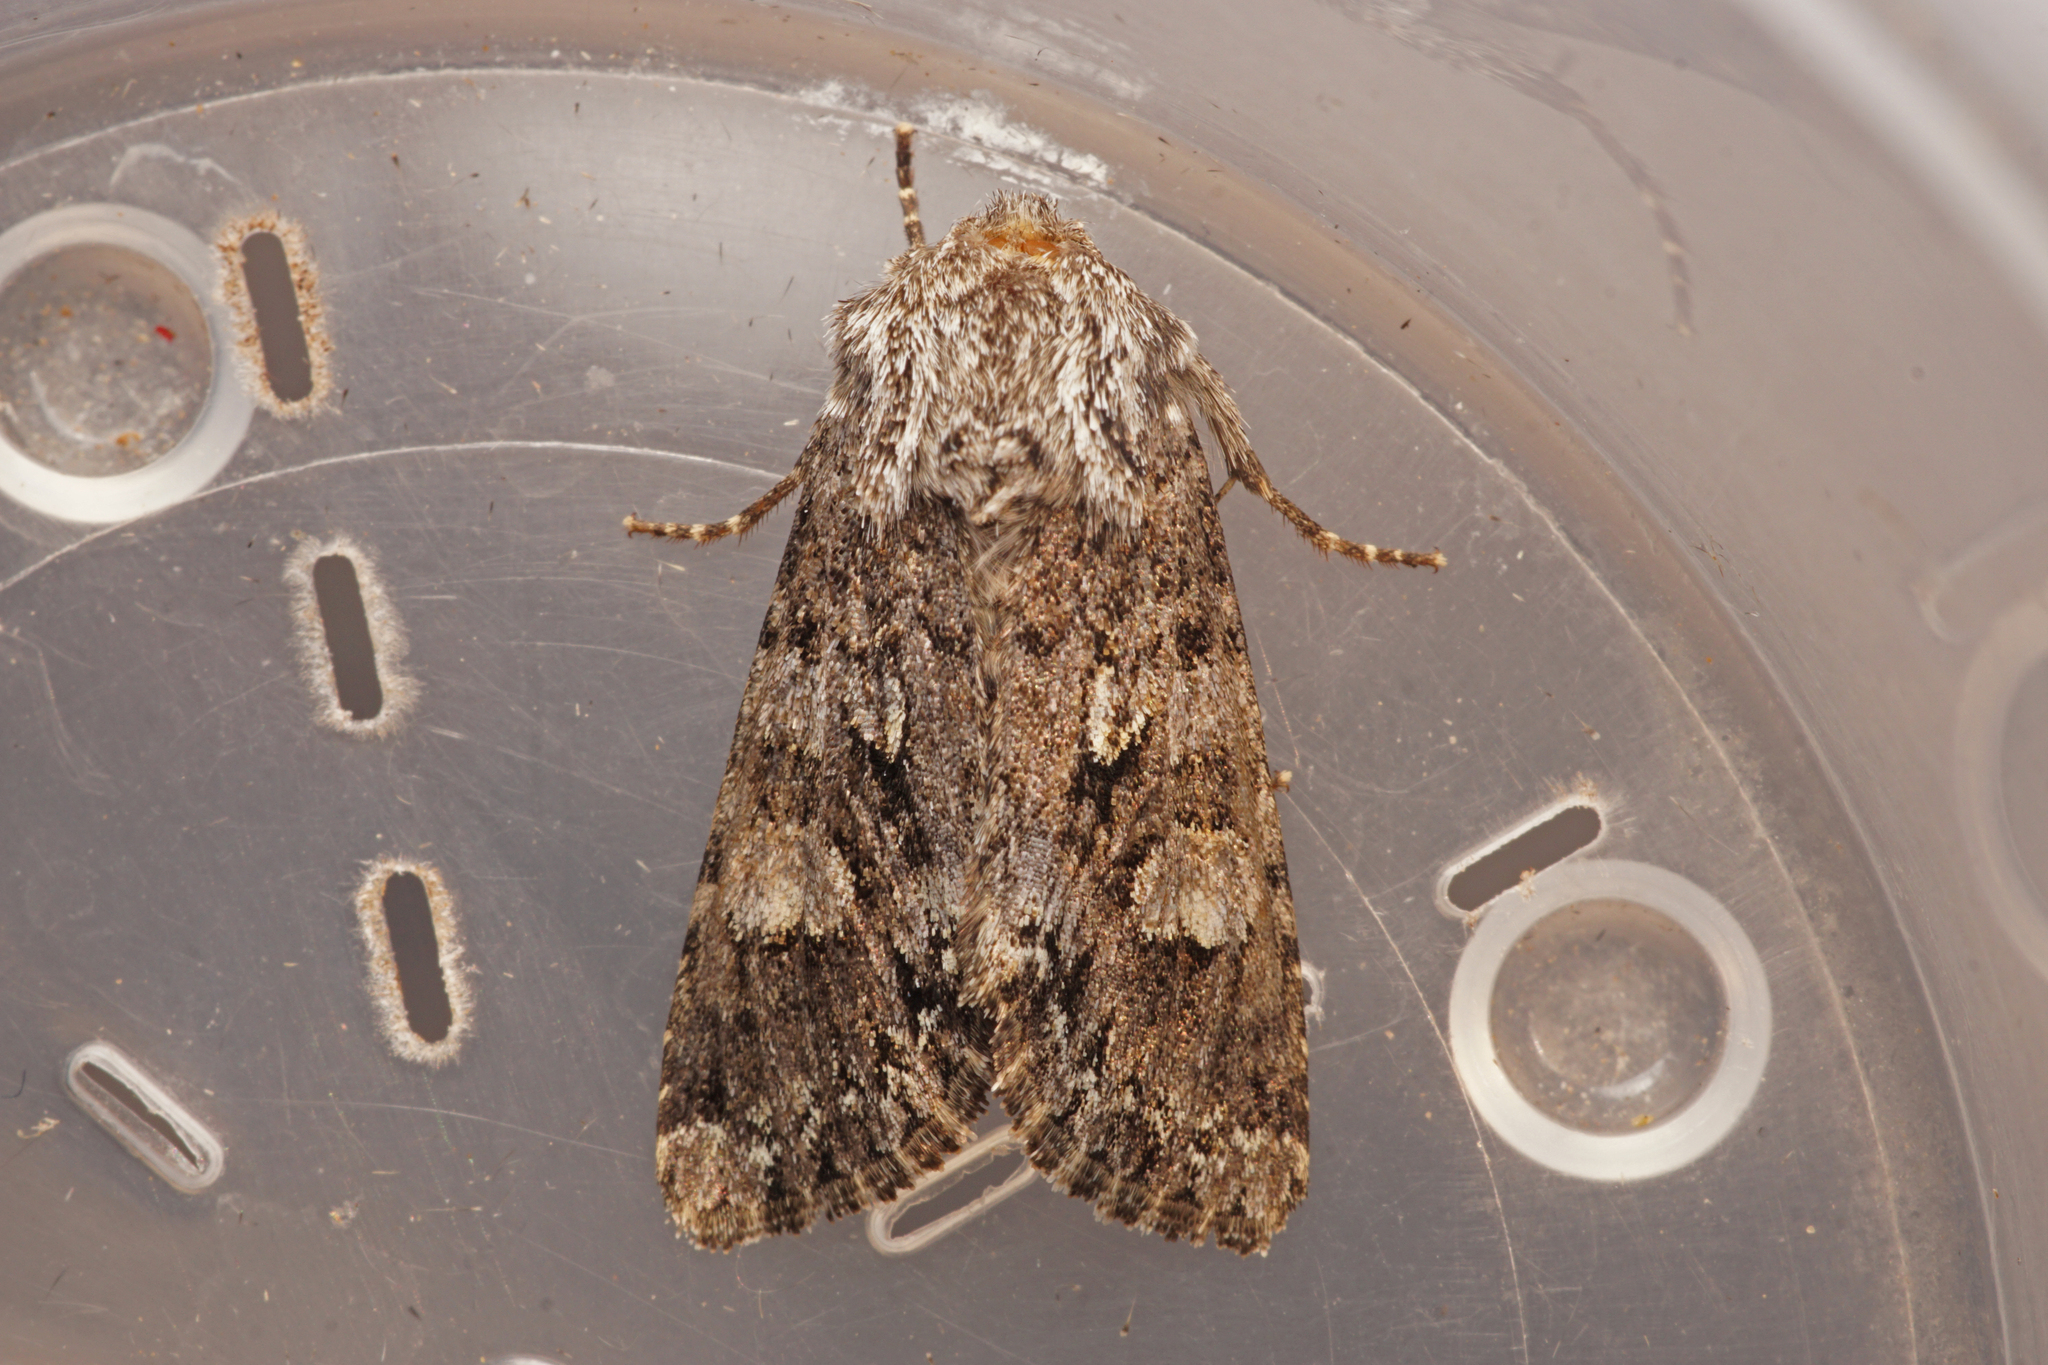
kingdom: Animalia
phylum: Arthropoda
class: Insecta
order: Lepidoptera
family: Noctuidae
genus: Papestra
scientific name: Papestra biren
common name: Glaucous shears
